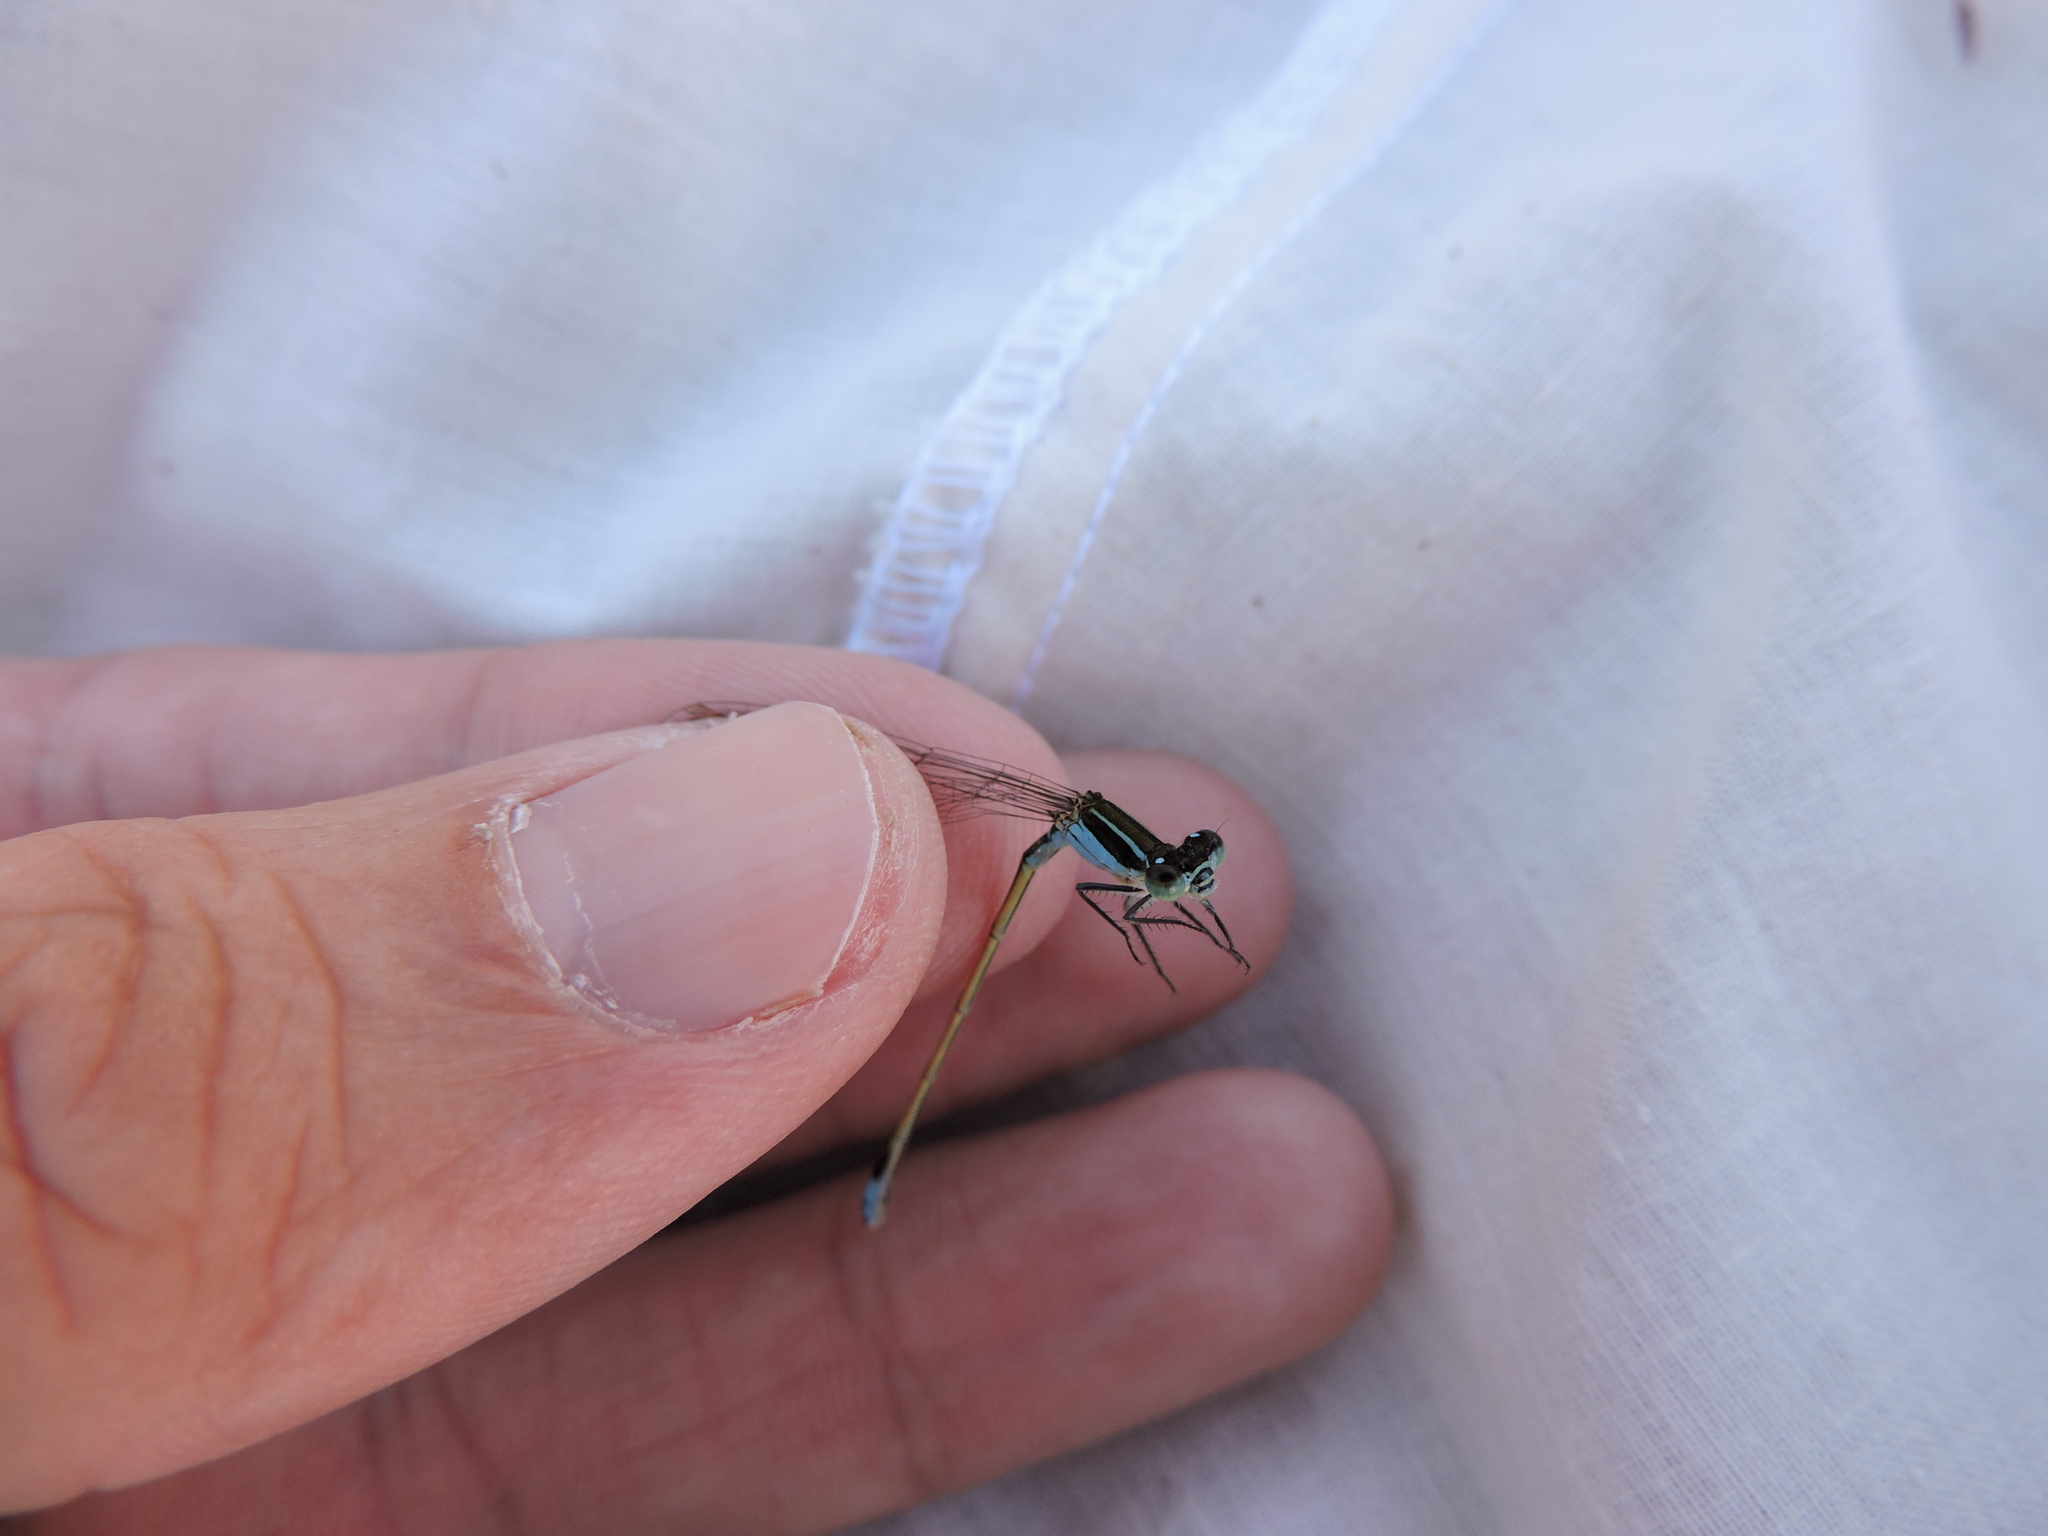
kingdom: Animalia
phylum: Arthropoda
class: Insecta
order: Odonata
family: Coenagrionidae
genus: Ischnura
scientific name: Ischnura ramburii
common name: Rambur's forktail
